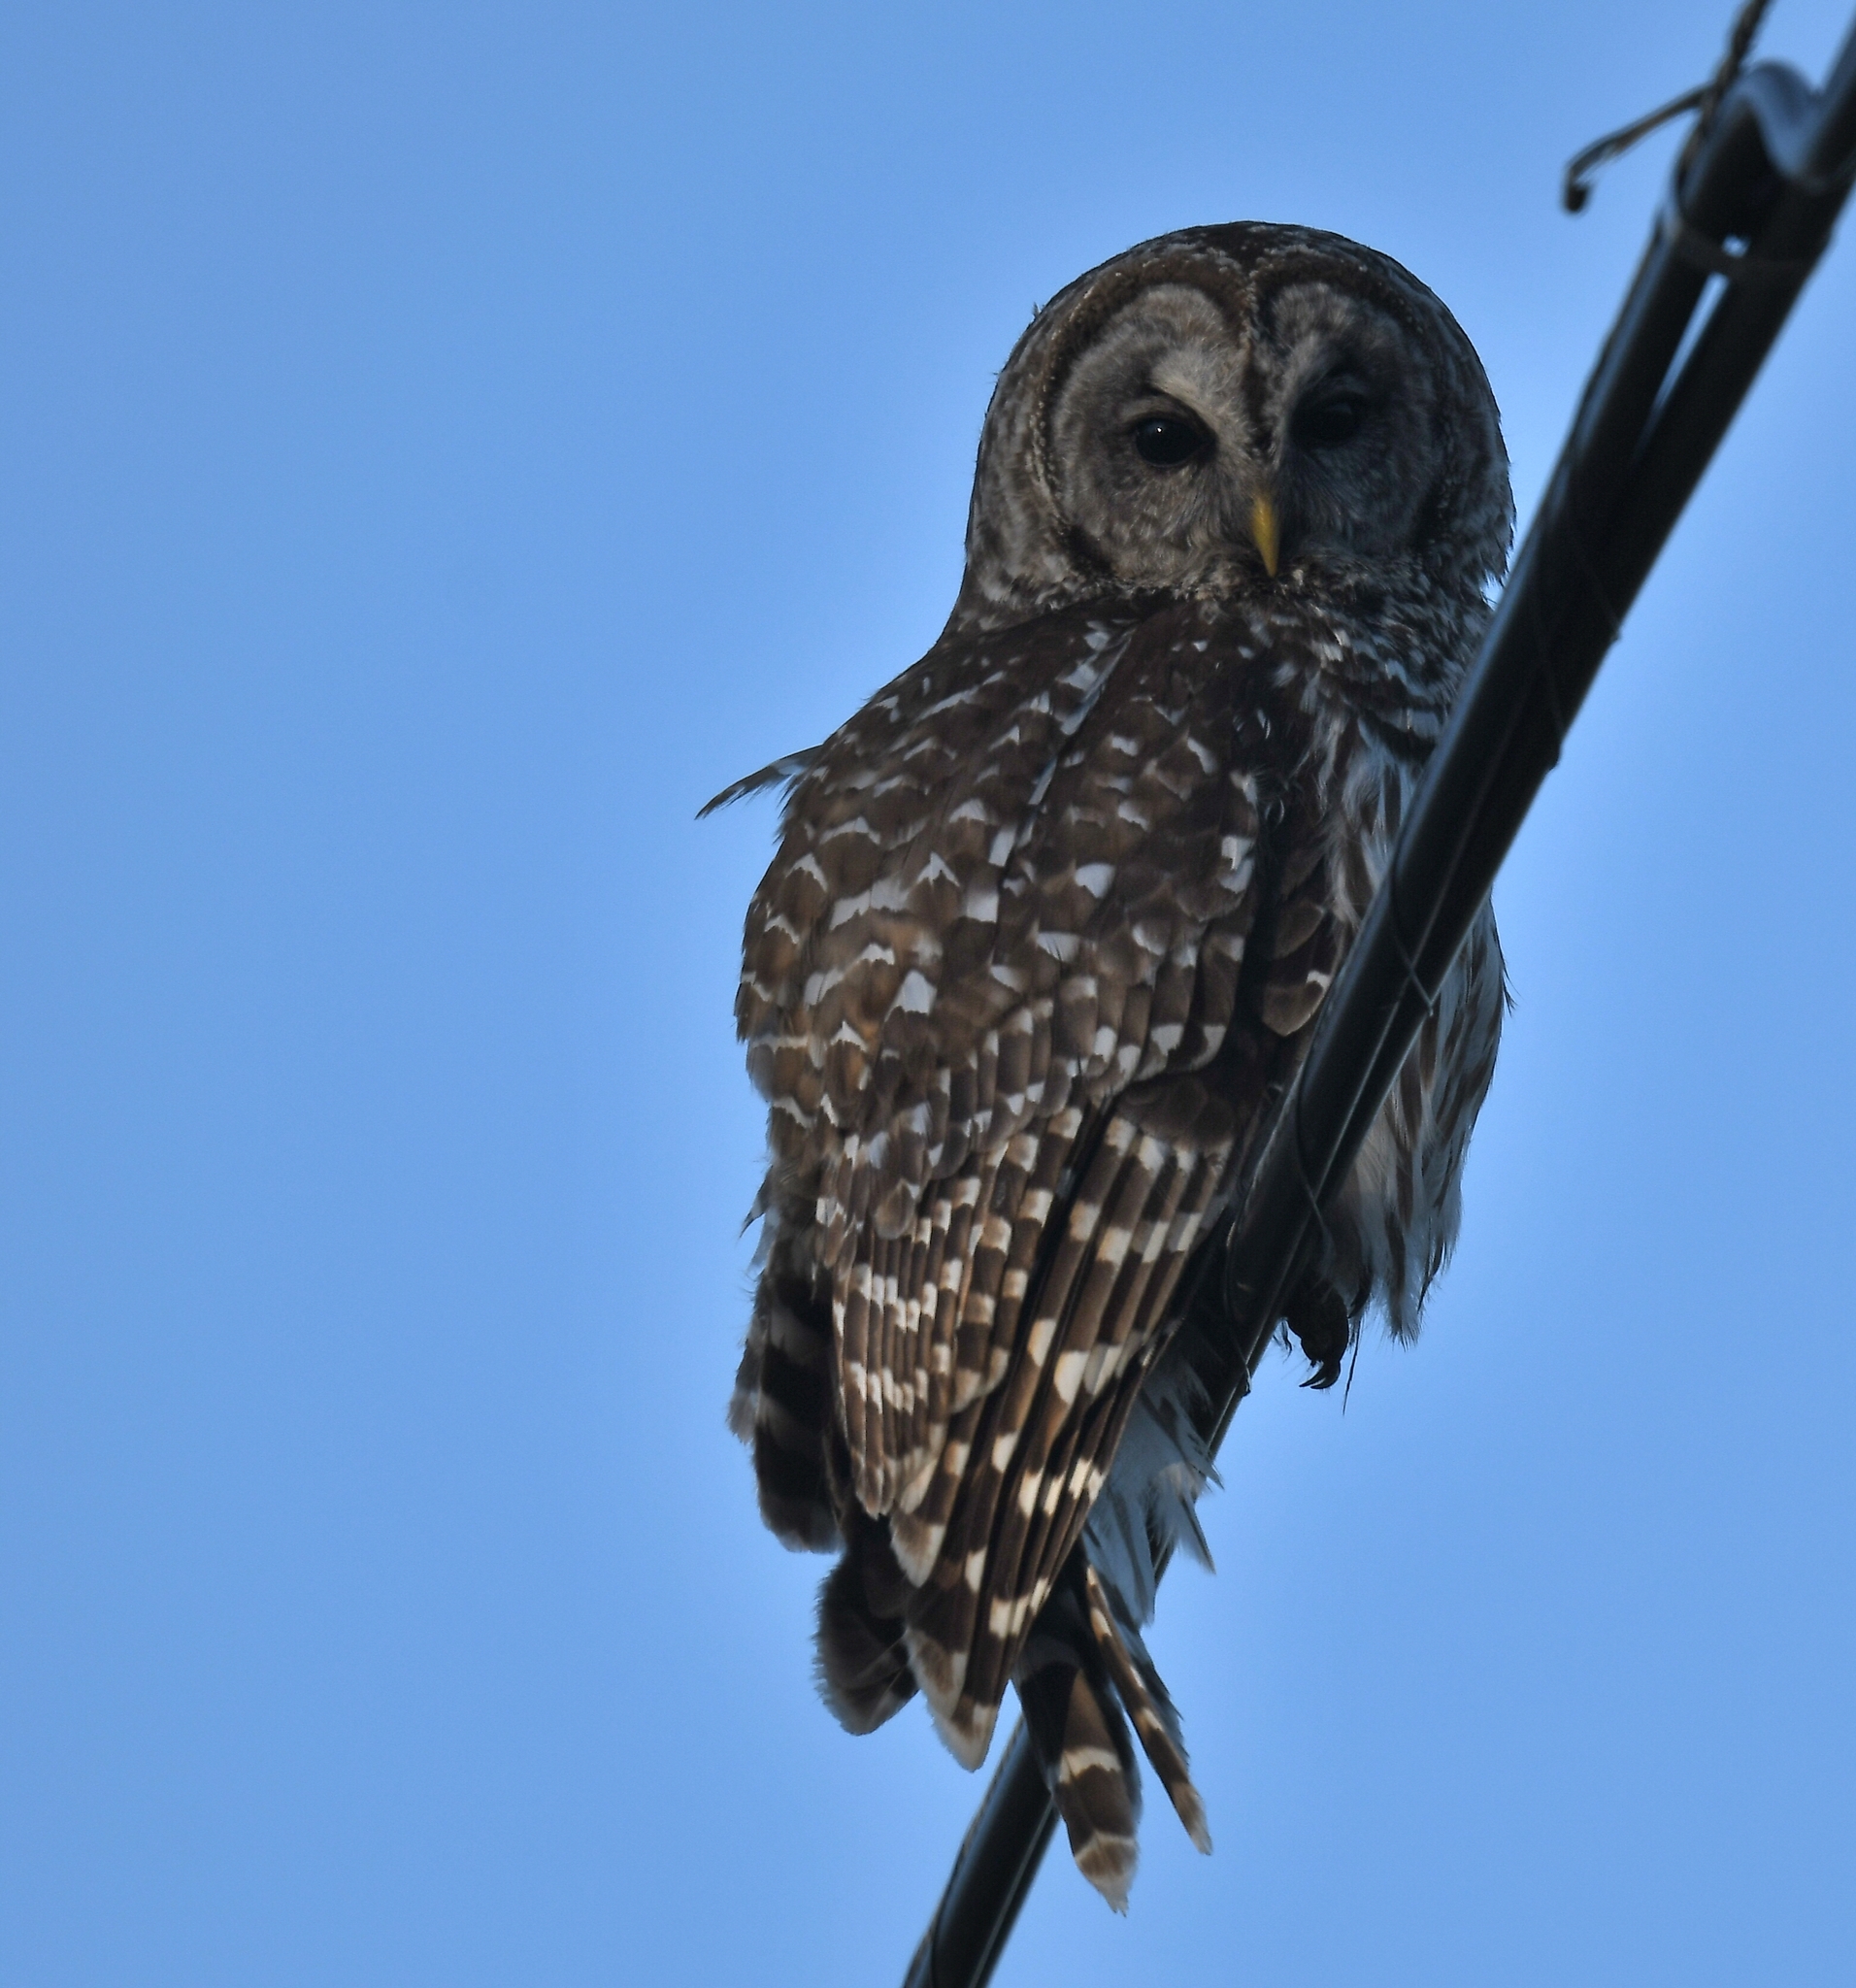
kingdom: Animalia
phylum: Chordata
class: Aves
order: Strigiformes
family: Strigidae
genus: Strix
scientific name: Strix varia
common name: Barred owl
